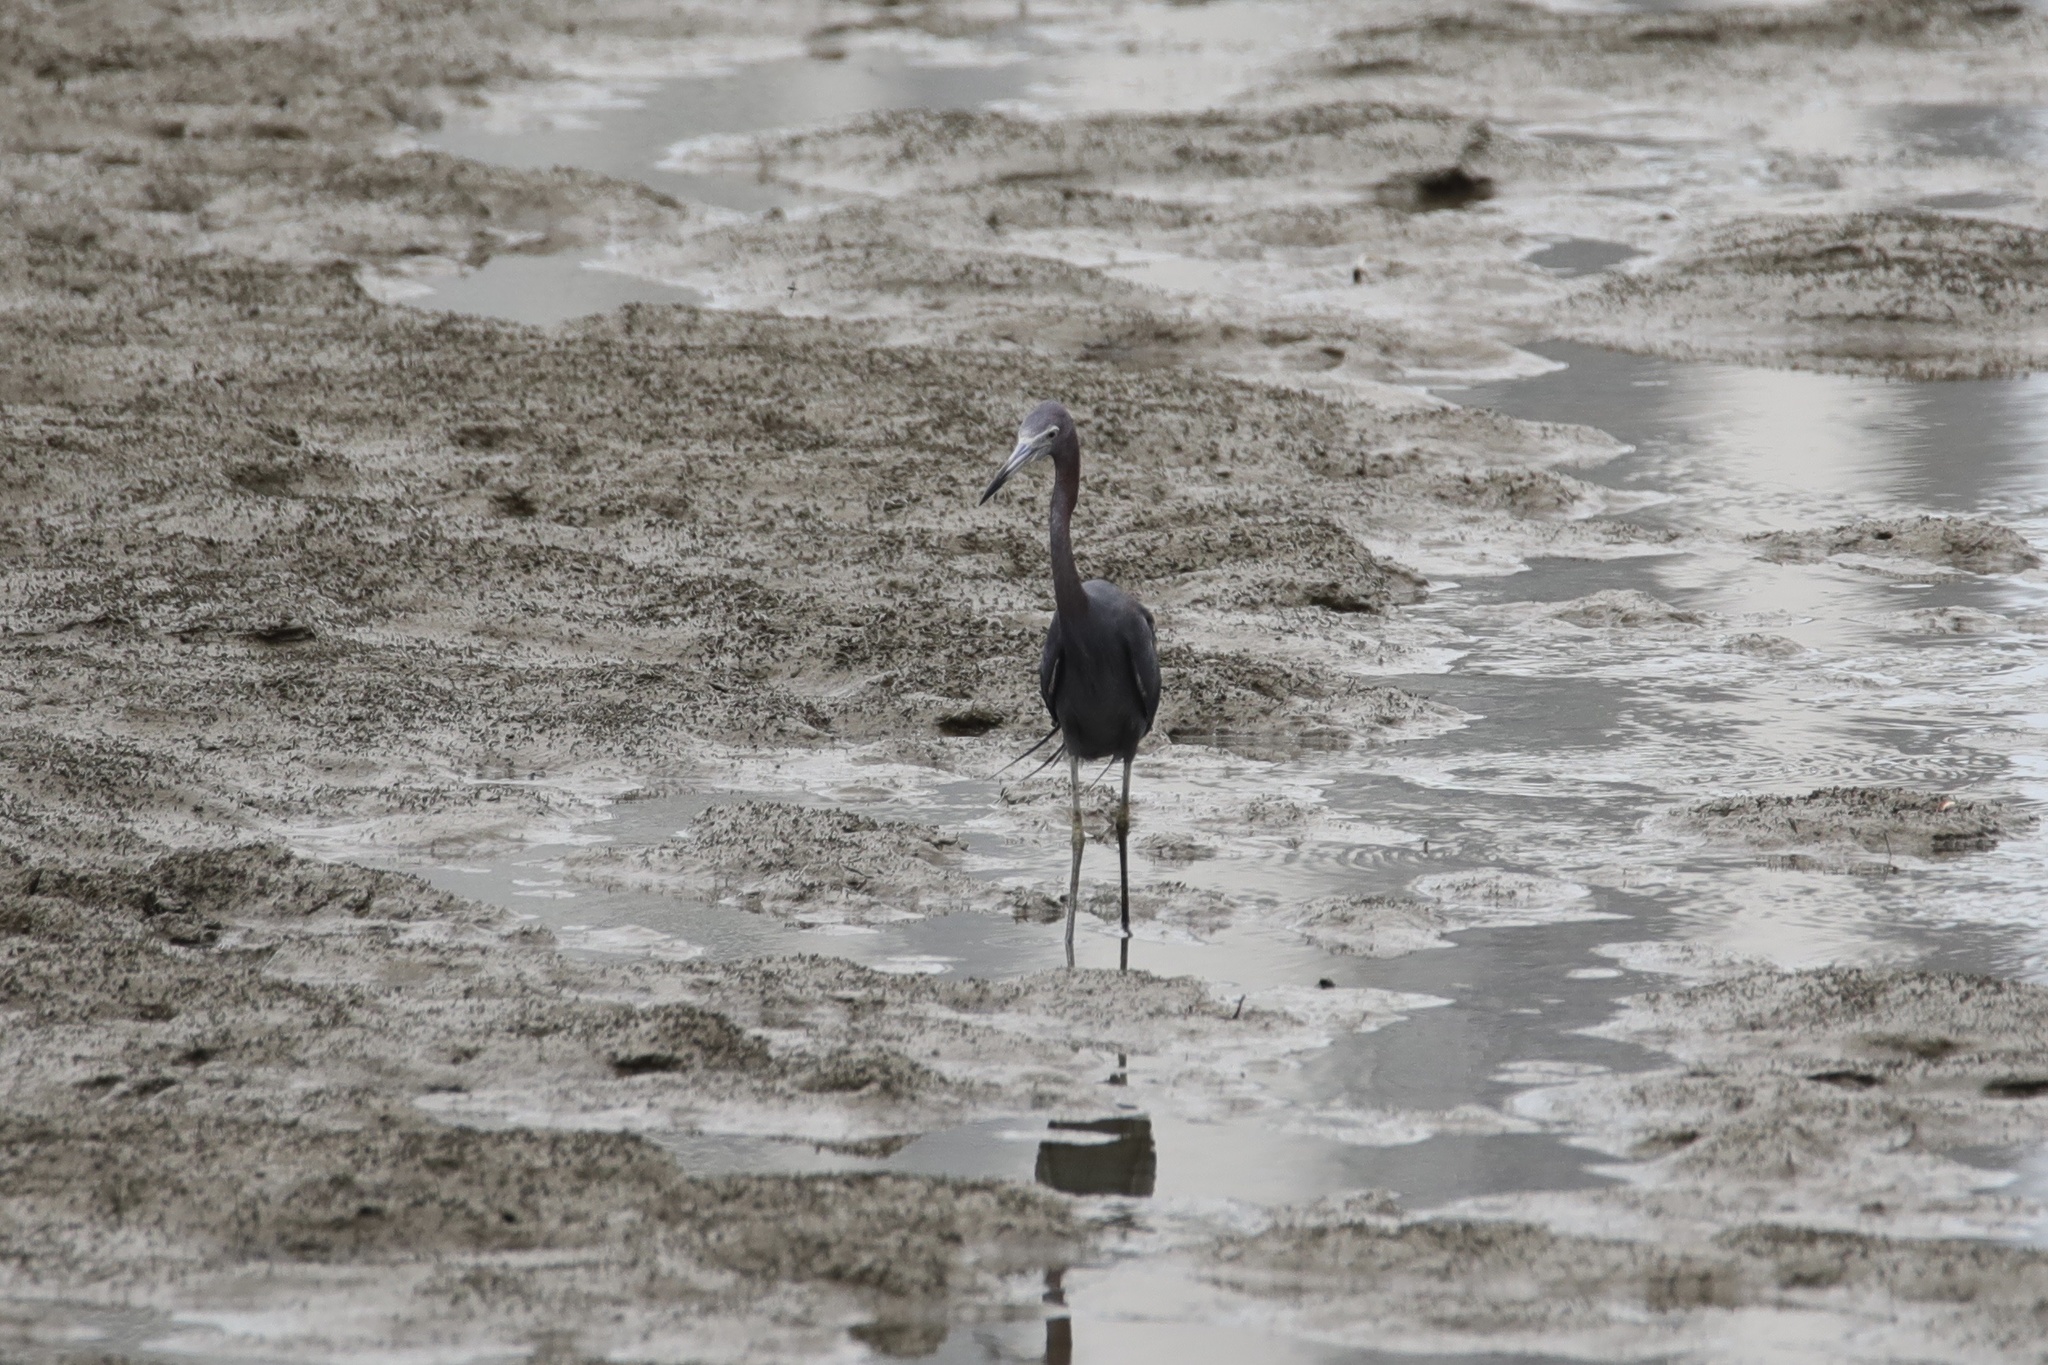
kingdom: Animalia
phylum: Chordata
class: Aves
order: Pelecaniformes
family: Ardeidae
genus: Egretta
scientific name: Egretta caerulea
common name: Little blue heron
